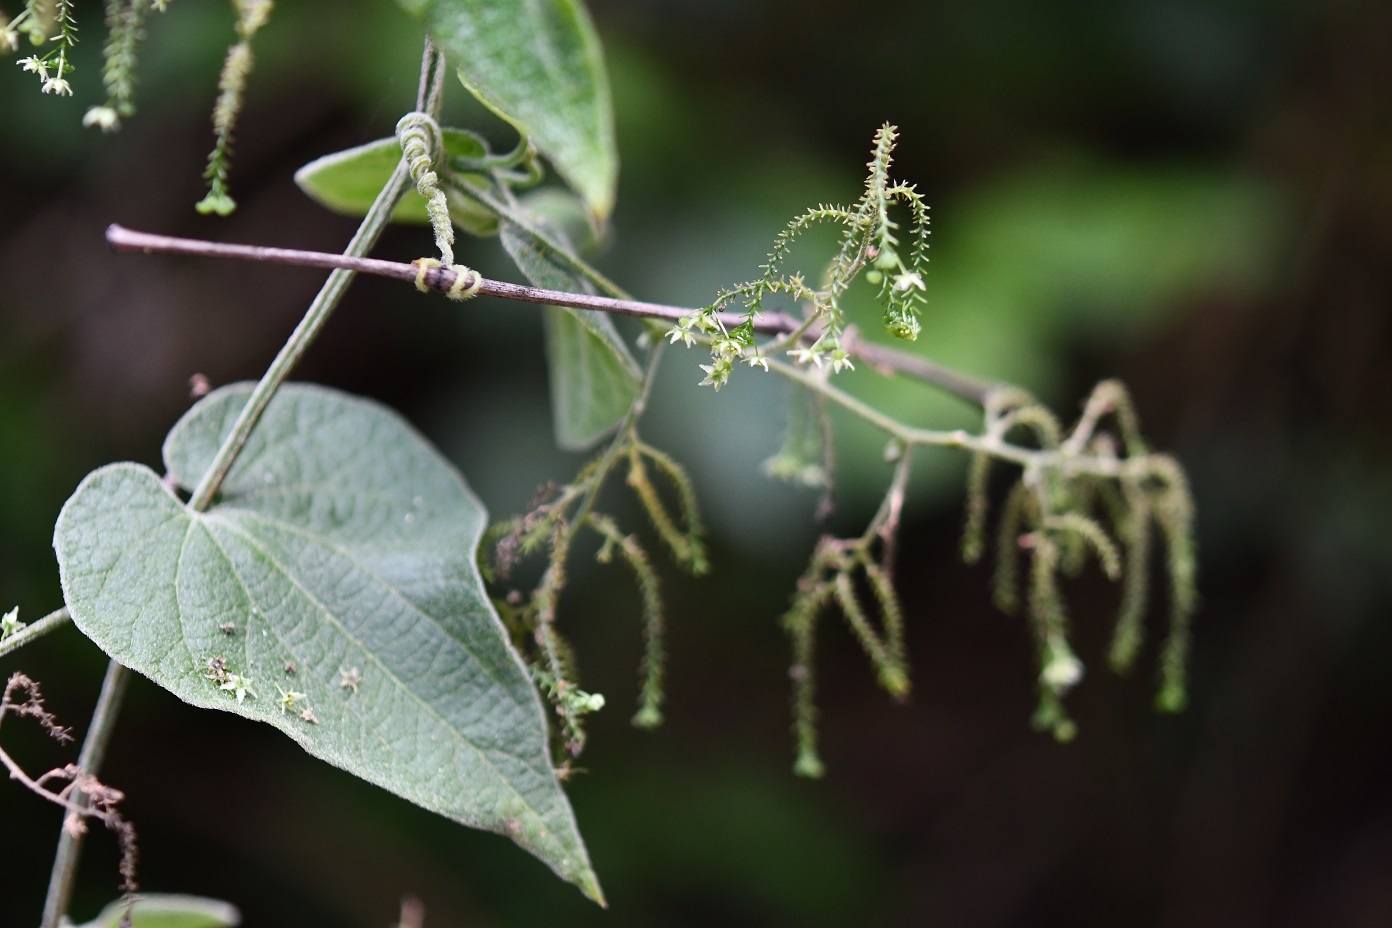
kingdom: Plantae
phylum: Tracheophyta
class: Magnoliopsida
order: Cucurbitales
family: Cucurbitaceae
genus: Sicydium
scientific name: Sicydium tamnifolium
